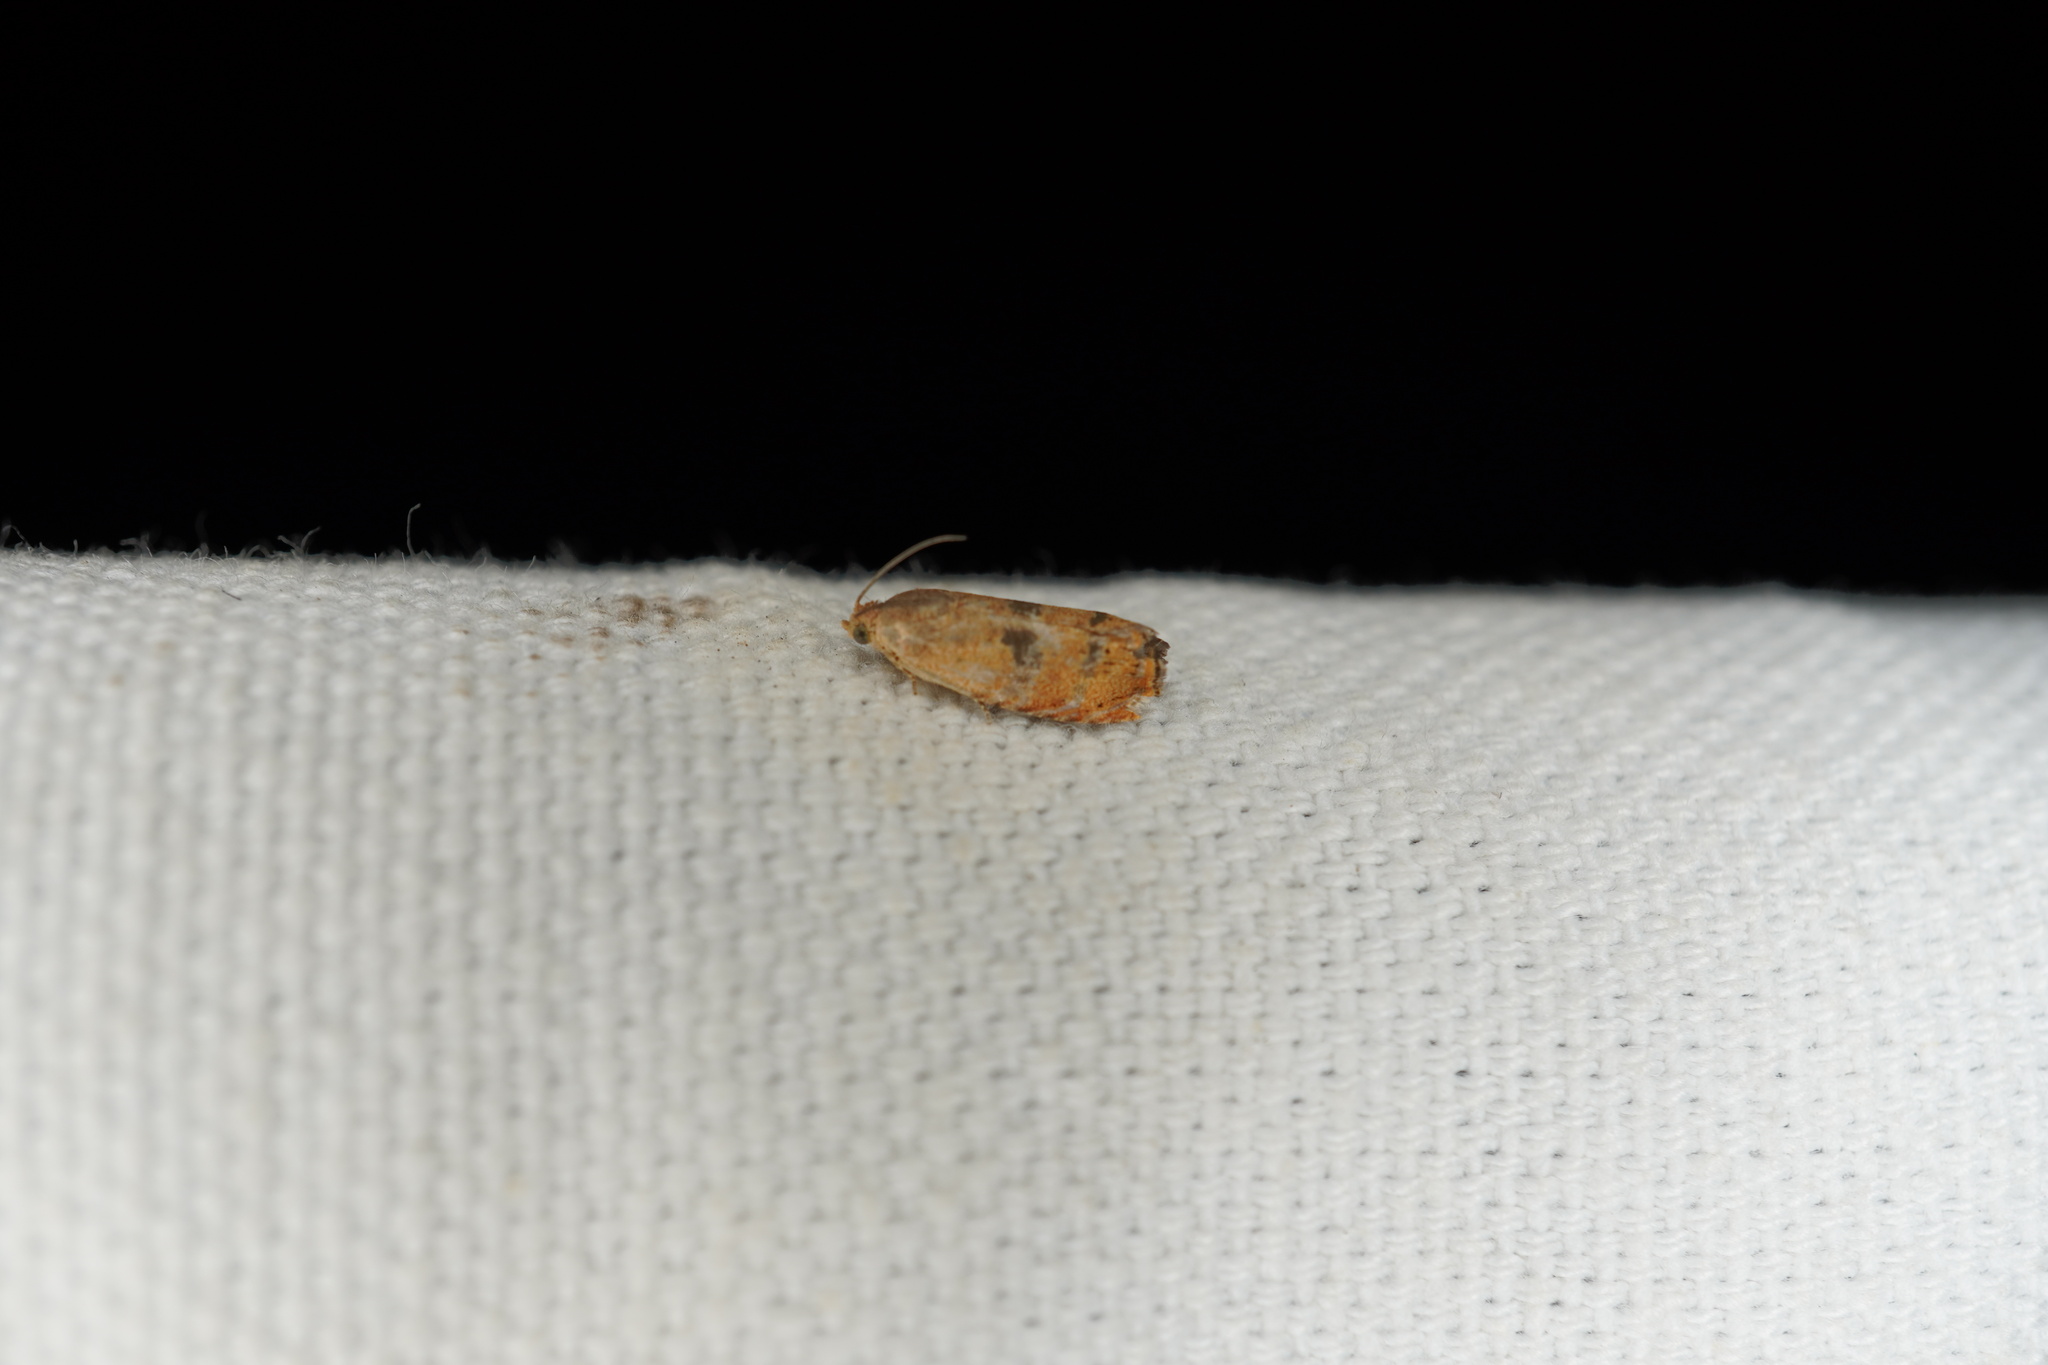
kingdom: Animalia
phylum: Arthropoda
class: Insecta
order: Lepidoptera
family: Tortricidae
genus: Cydia
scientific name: Cydia latiferreana
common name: Filbertworm moth
